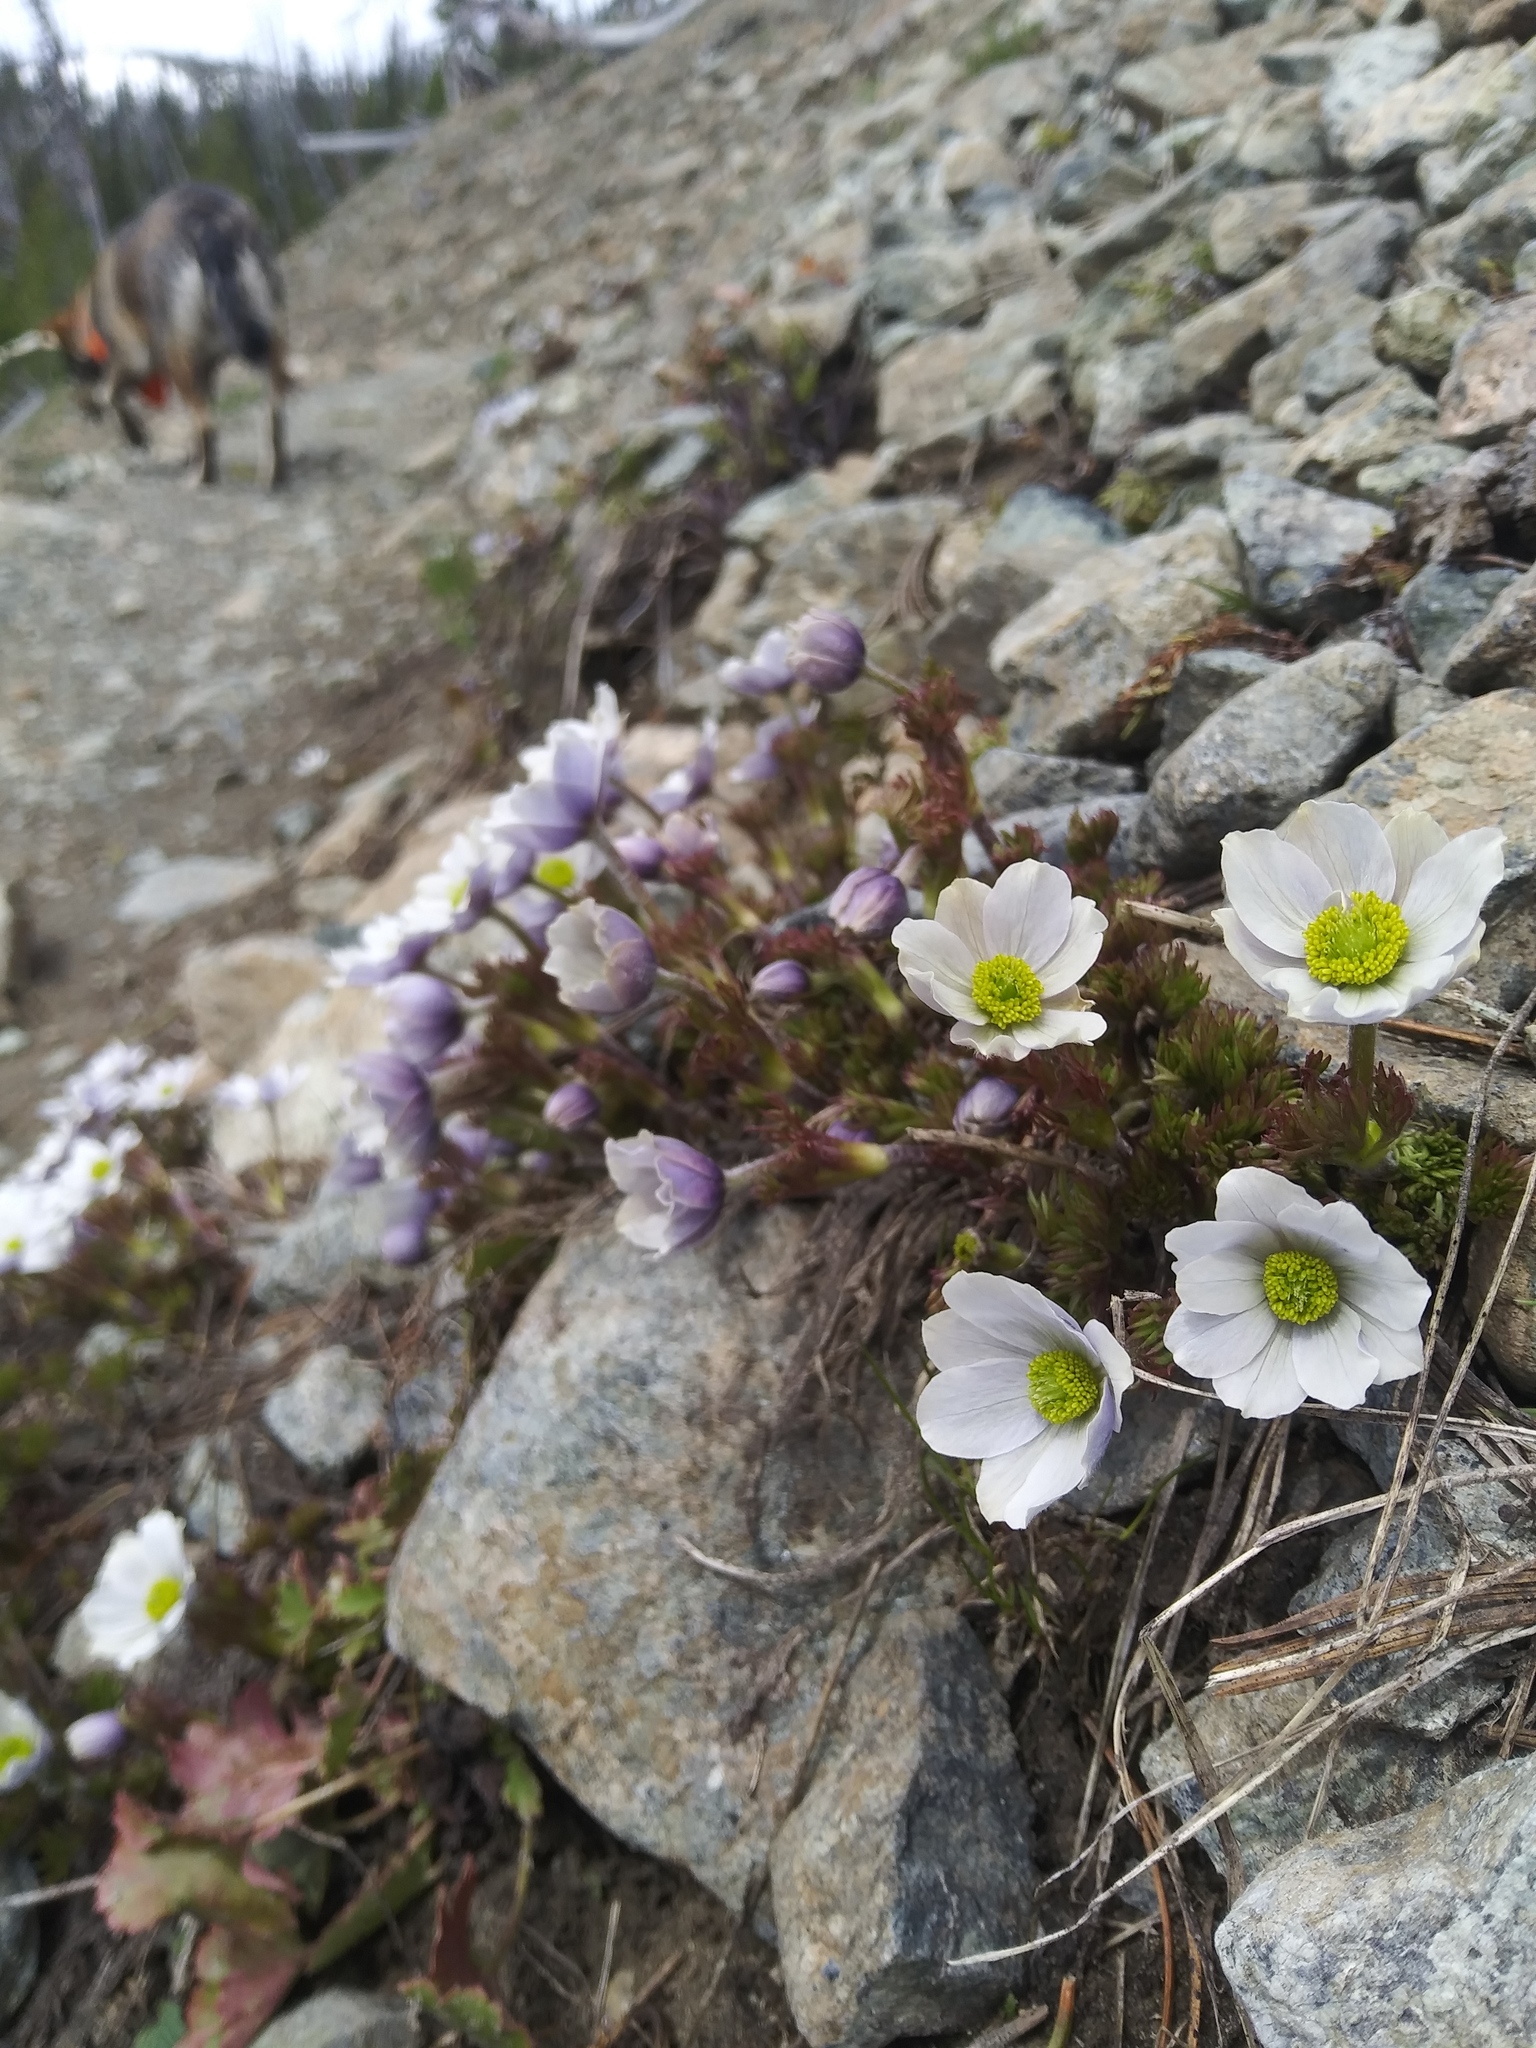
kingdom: Plantae
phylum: Tracheophyta
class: Magnoliopsida
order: Ranunculales
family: Ranunculaceae
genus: Anemone
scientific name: Anemone drummondii
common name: Drummond's anemone
